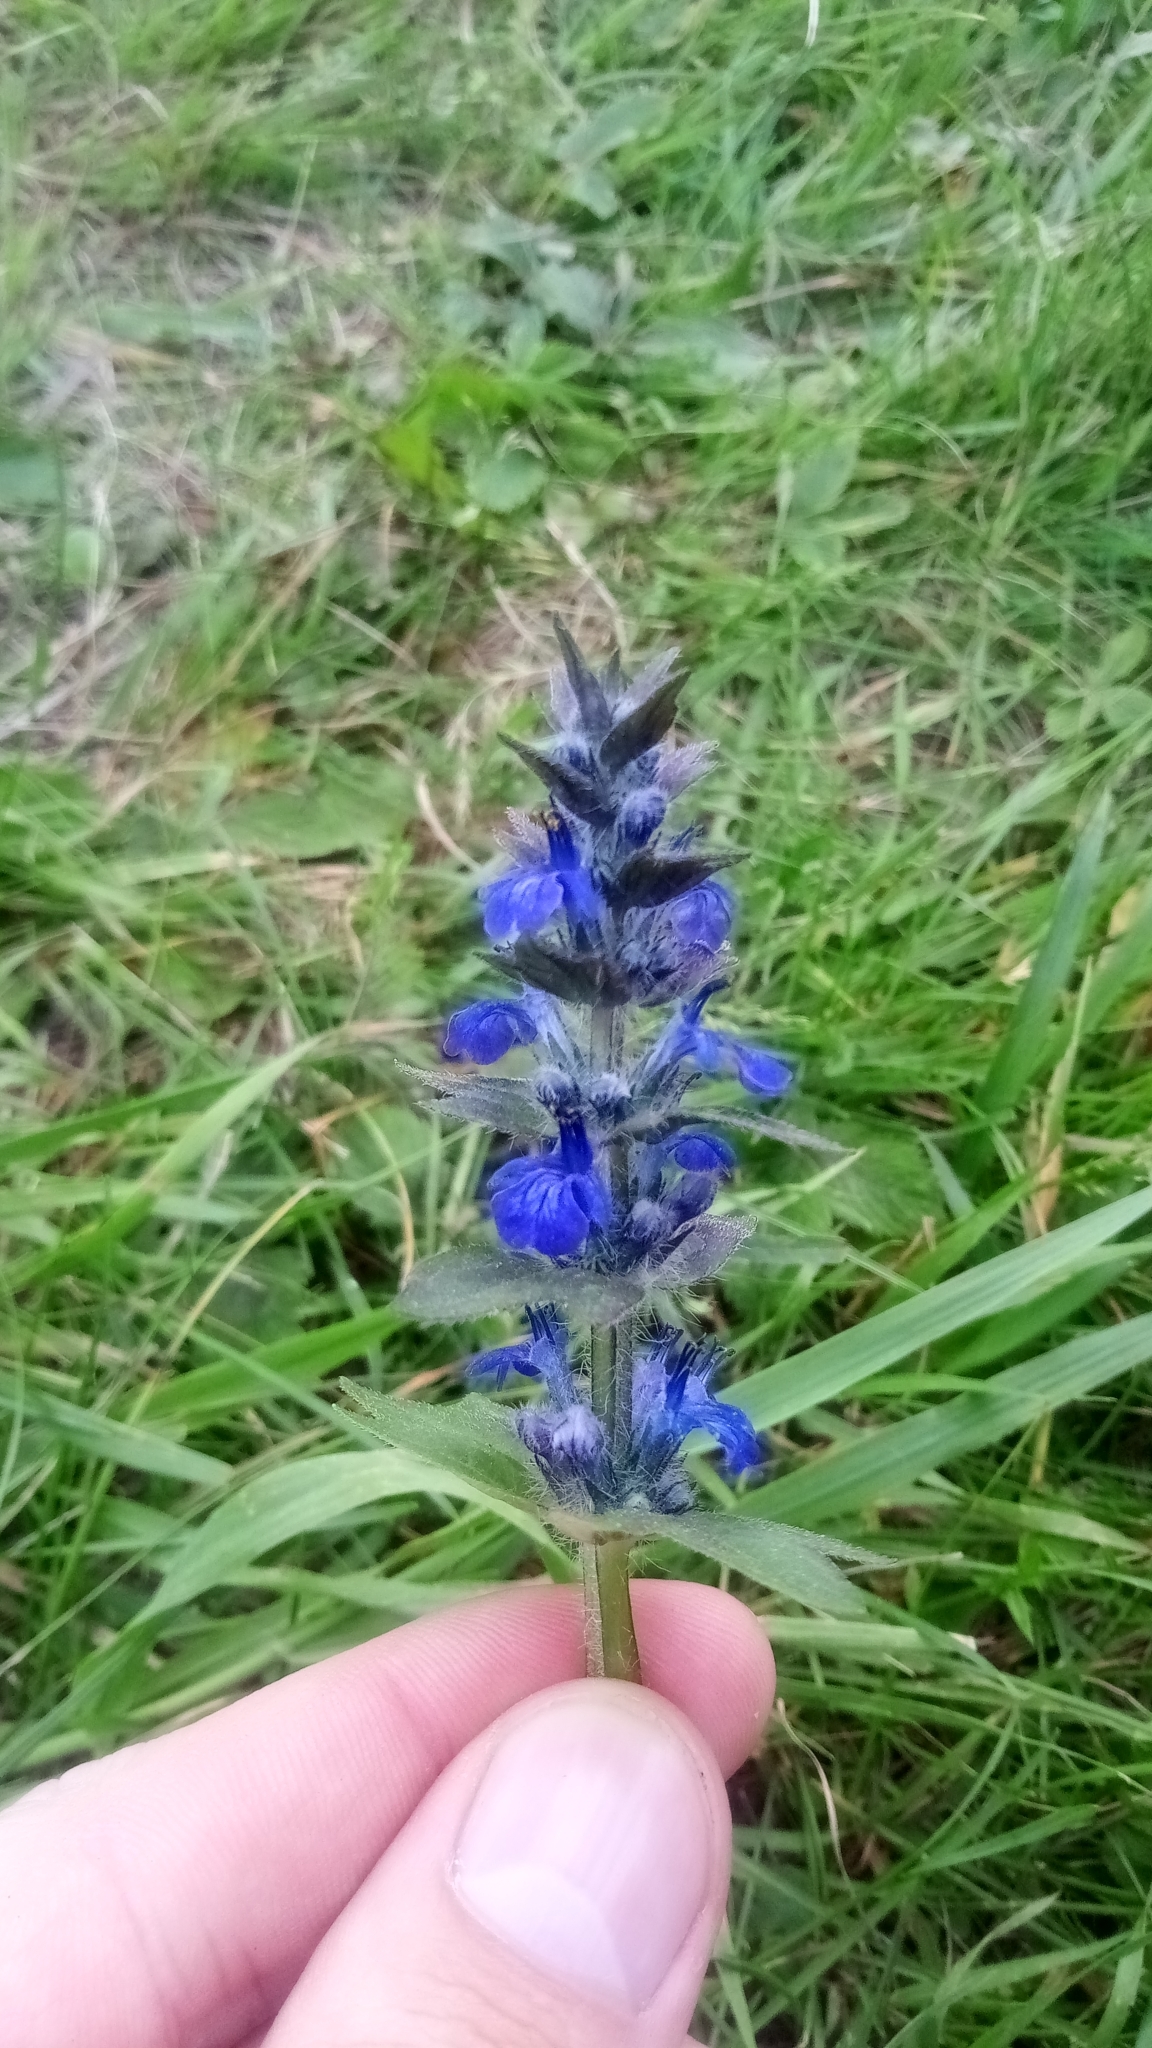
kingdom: Plantae
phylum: Tracheophyta
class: Magnoliopsida
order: Lamiales
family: Lamiaceae
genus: Ajuga
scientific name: Ajuga genevensis
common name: Blue bugle
